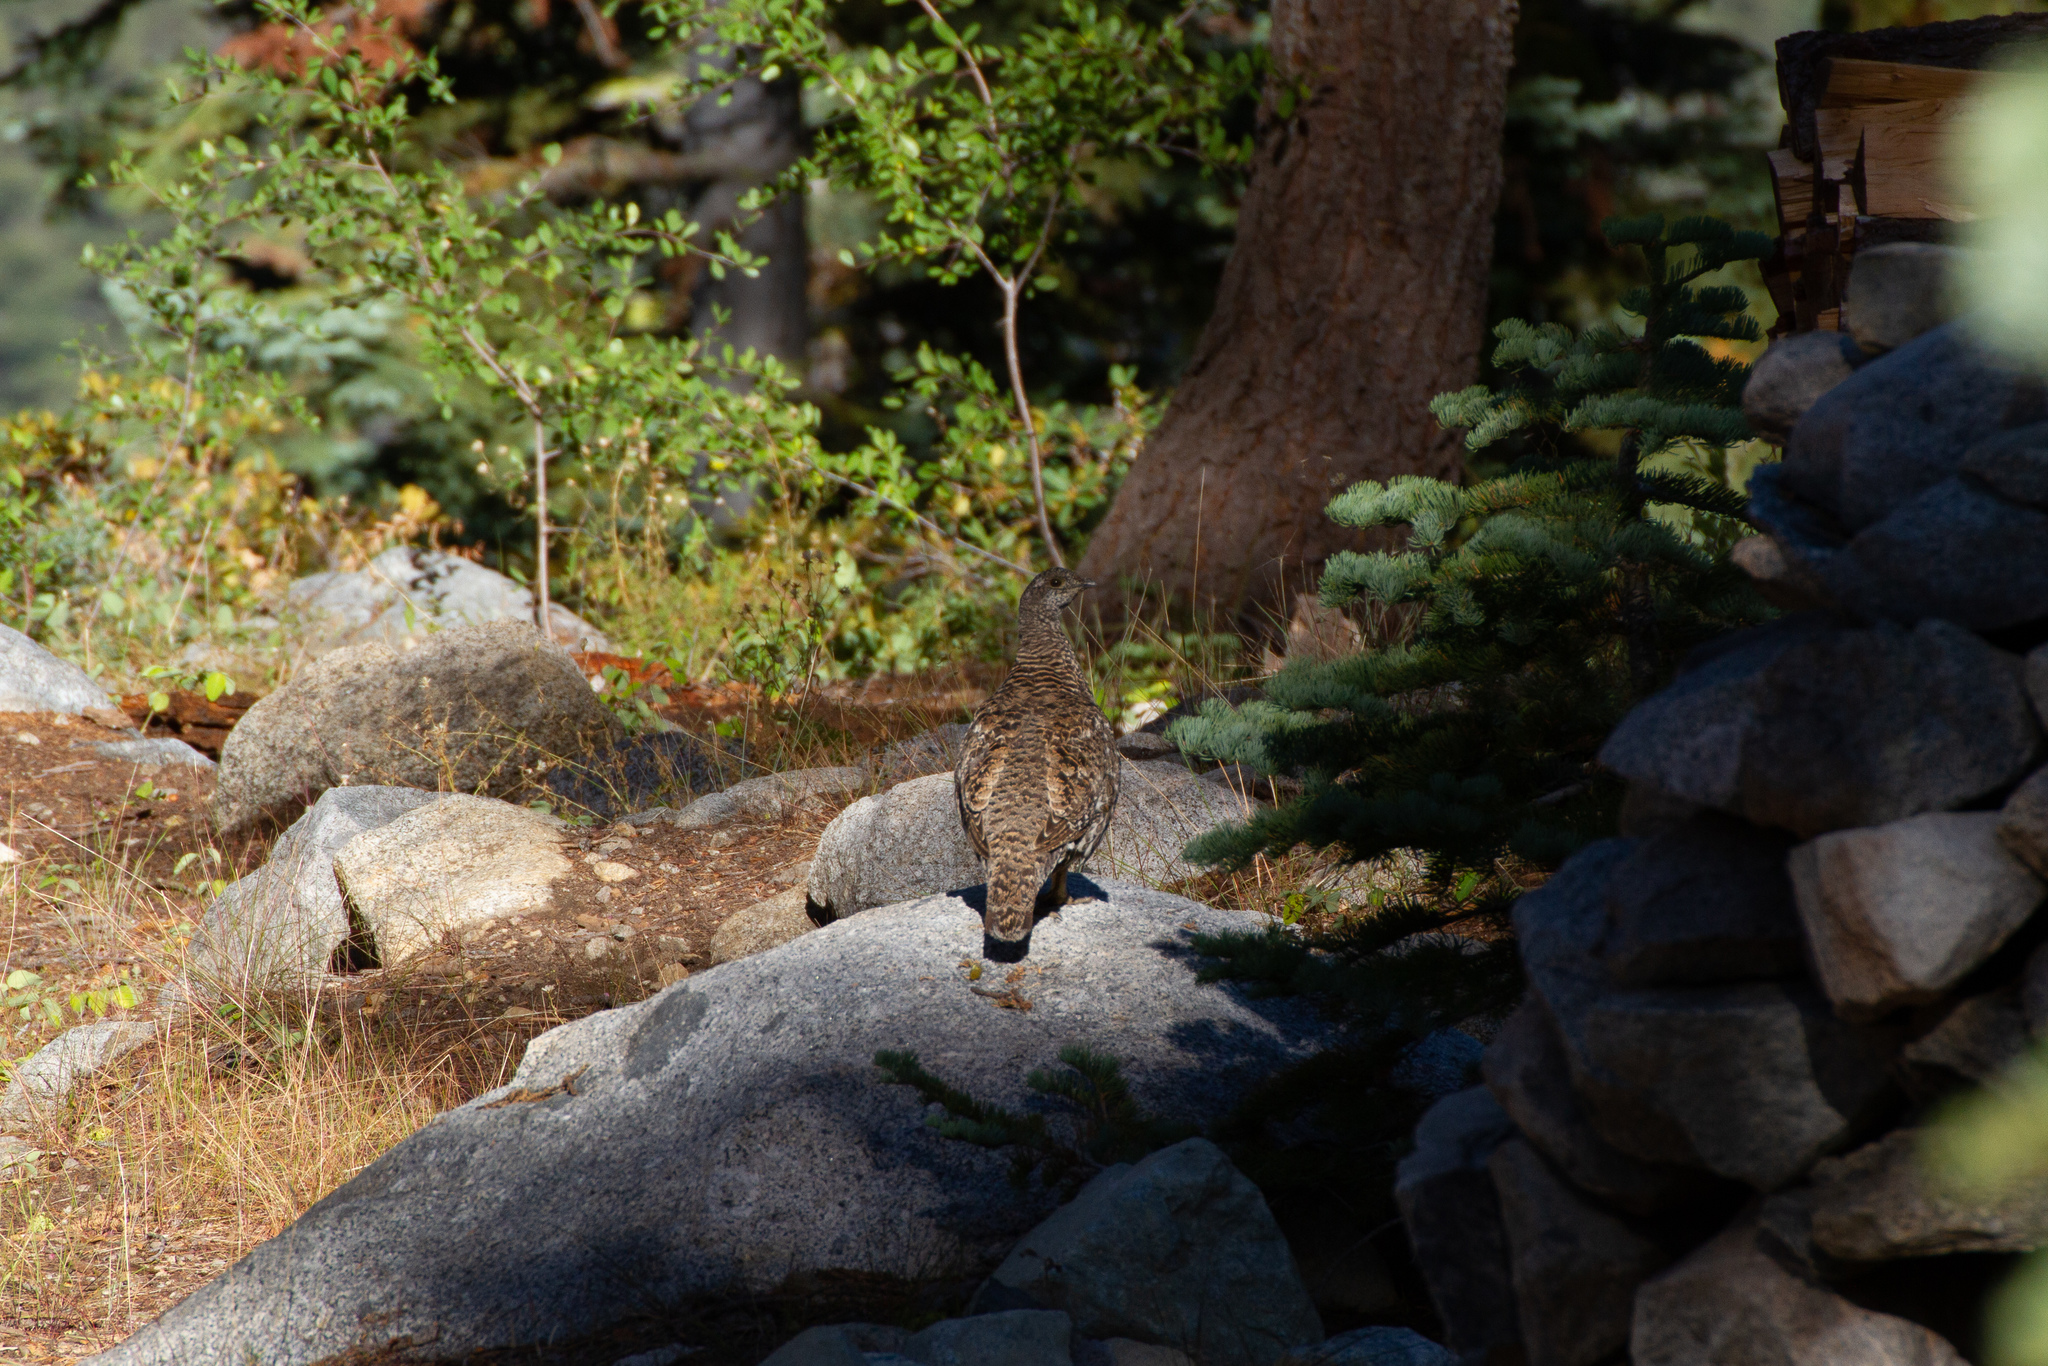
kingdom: Animalia
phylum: Chordata
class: Aves
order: Galliformes
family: Phasianidae
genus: Dendragapus
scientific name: Dendragapus fuliginosus
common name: Sooty grouse
